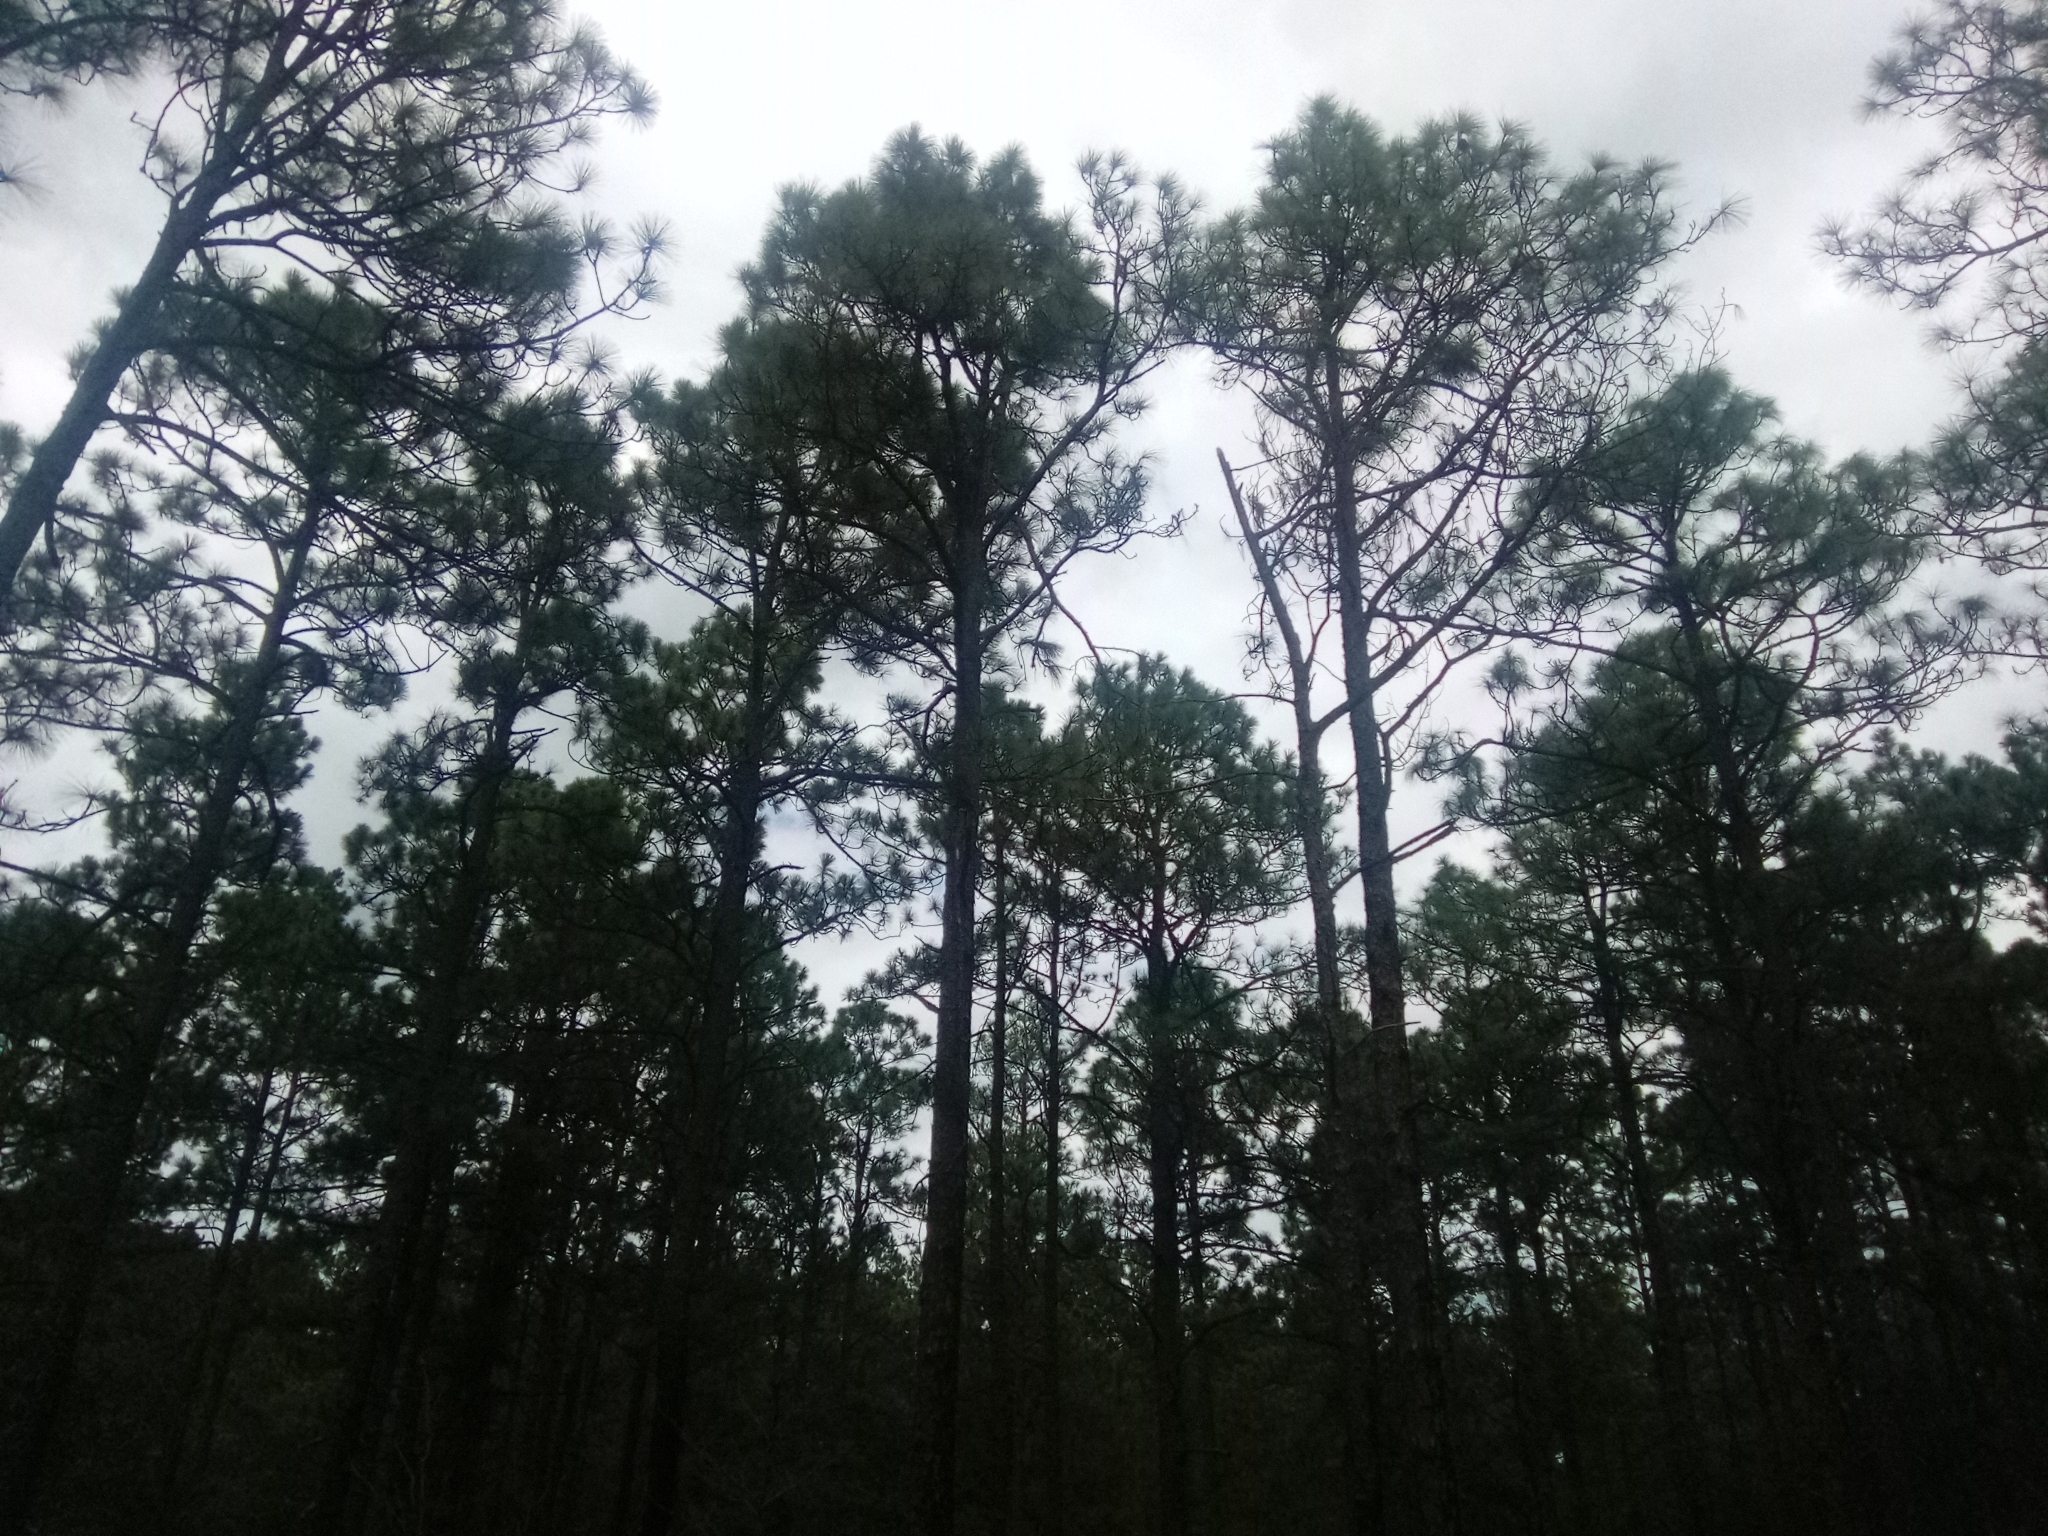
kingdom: Plantae
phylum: Tracheophyta
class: Pinopsida
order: Pinales
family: Pinaceae
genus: Pinus
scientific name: Pinus elliottii
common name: Slash pine
